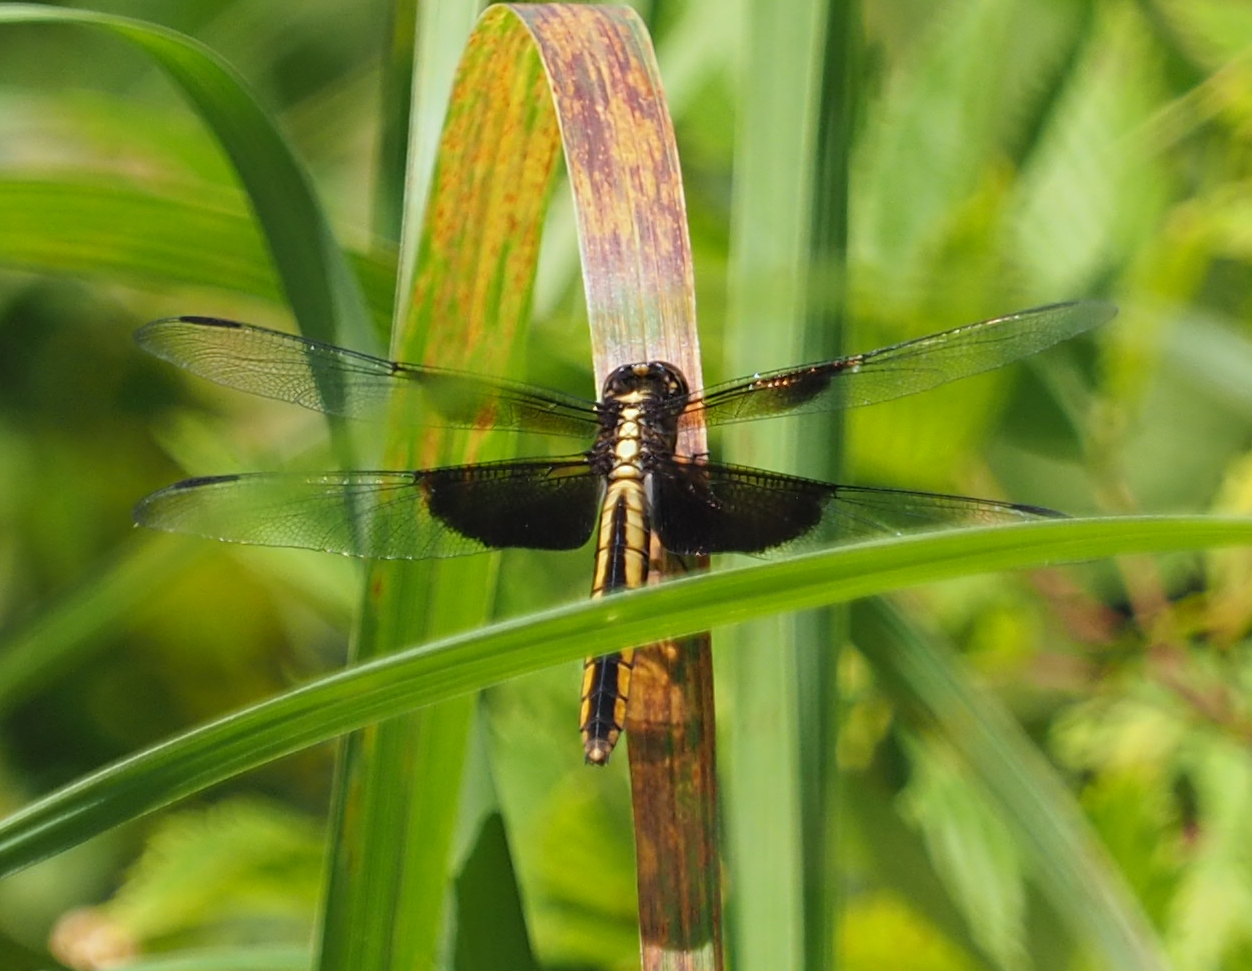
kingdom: Animalia
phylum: Arthropoda
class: Insecta
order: Odonata
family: Libellulidae
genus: Libellula
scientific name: Libellula luctuosa
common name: Widow skimmer
